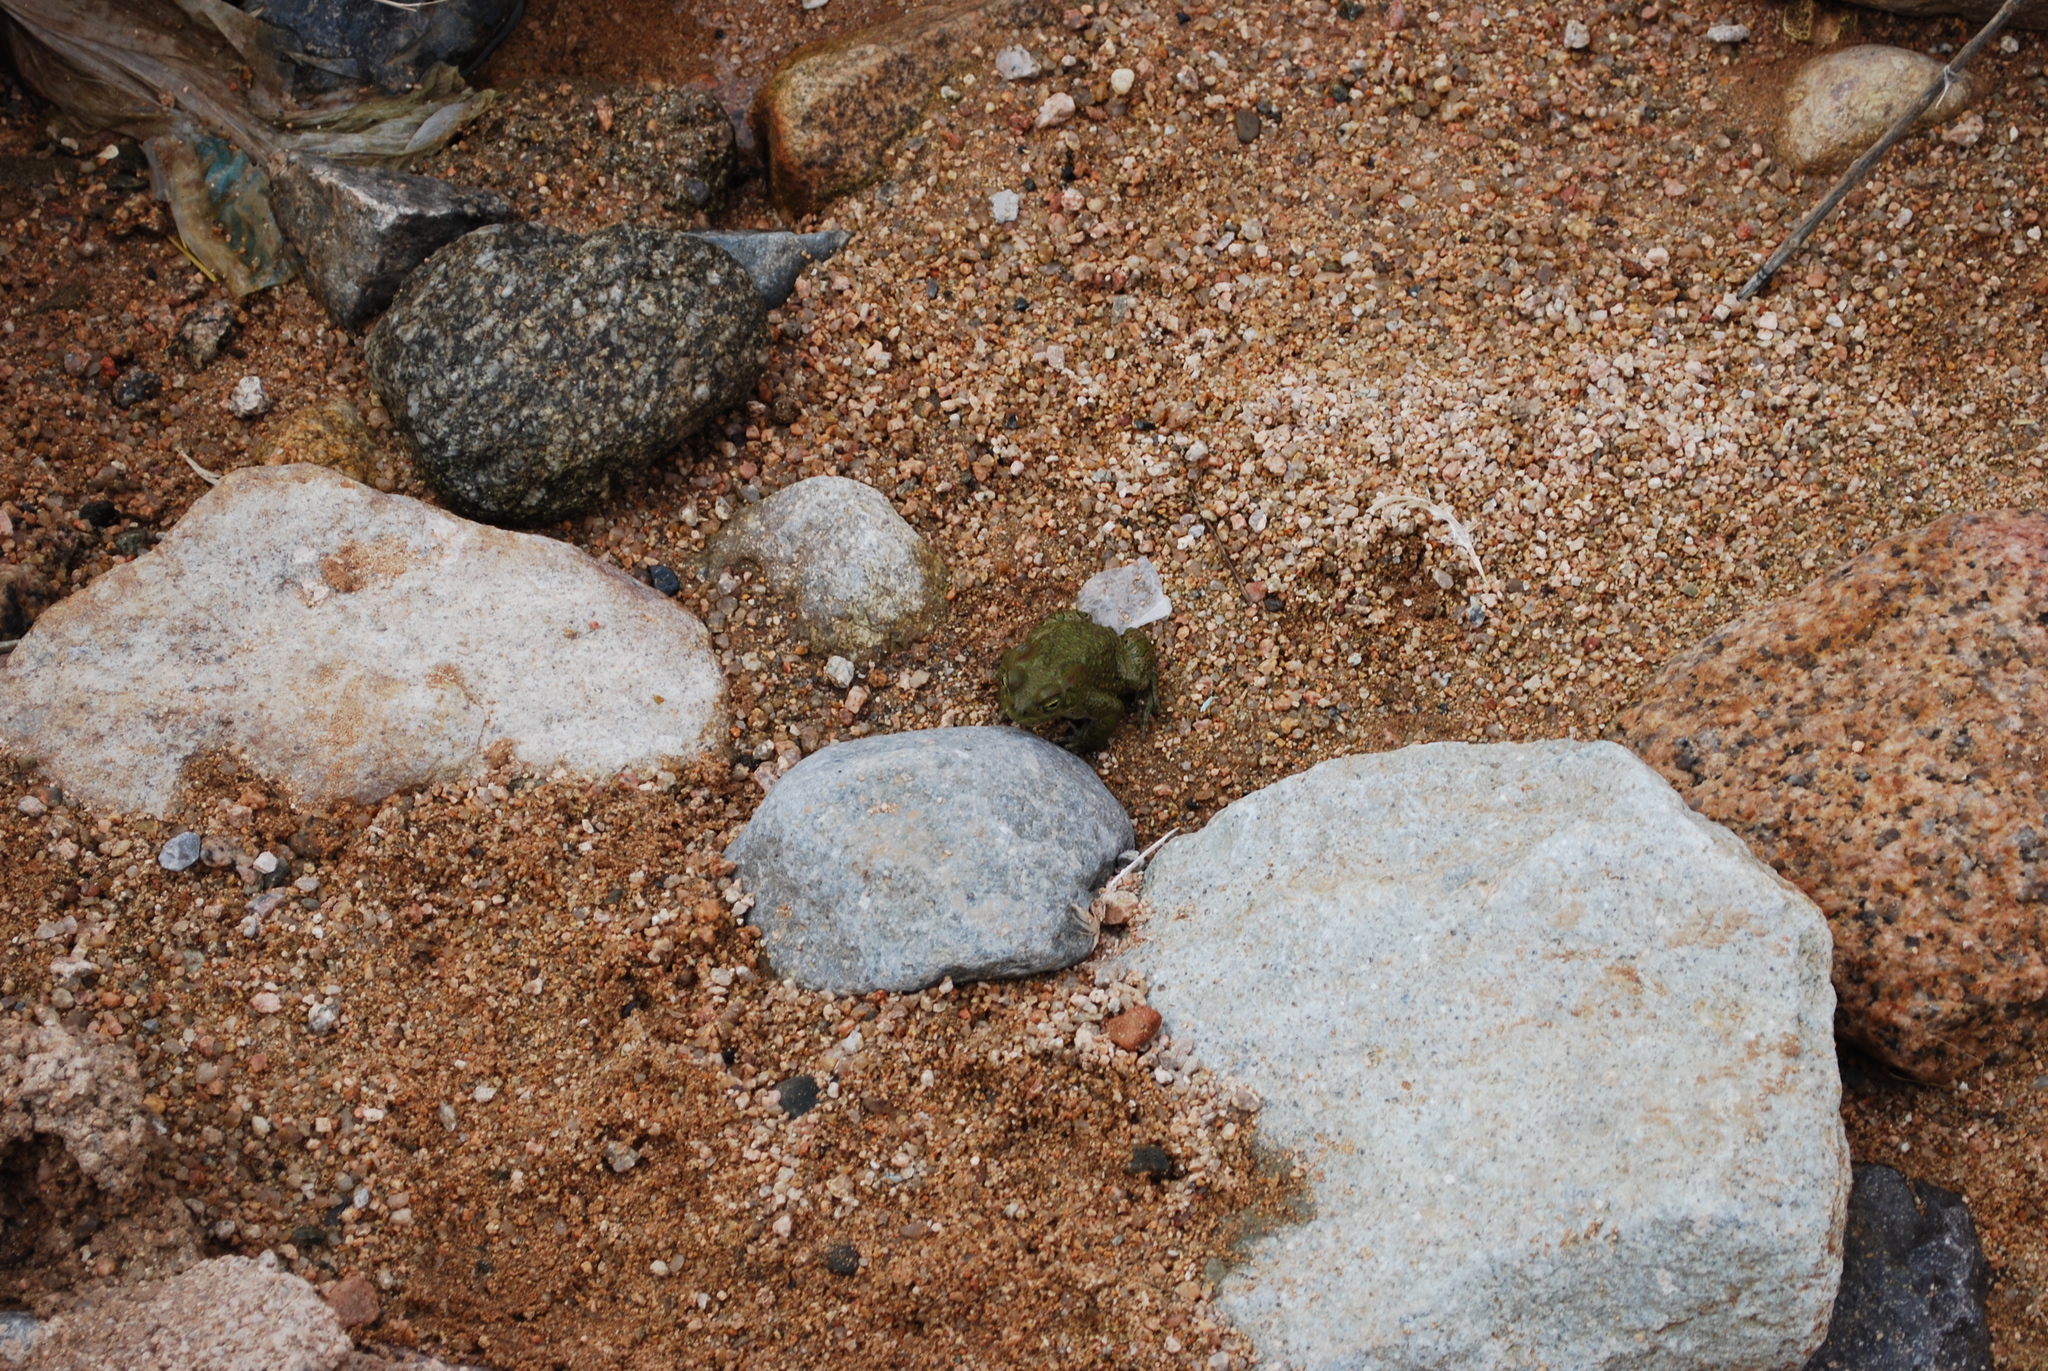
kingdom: Animalia
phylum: Chordata
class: Amphibia
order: Anura
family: Bufonidae
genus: Bufotes
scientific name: Bufotes boulengeri
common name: African green toad
